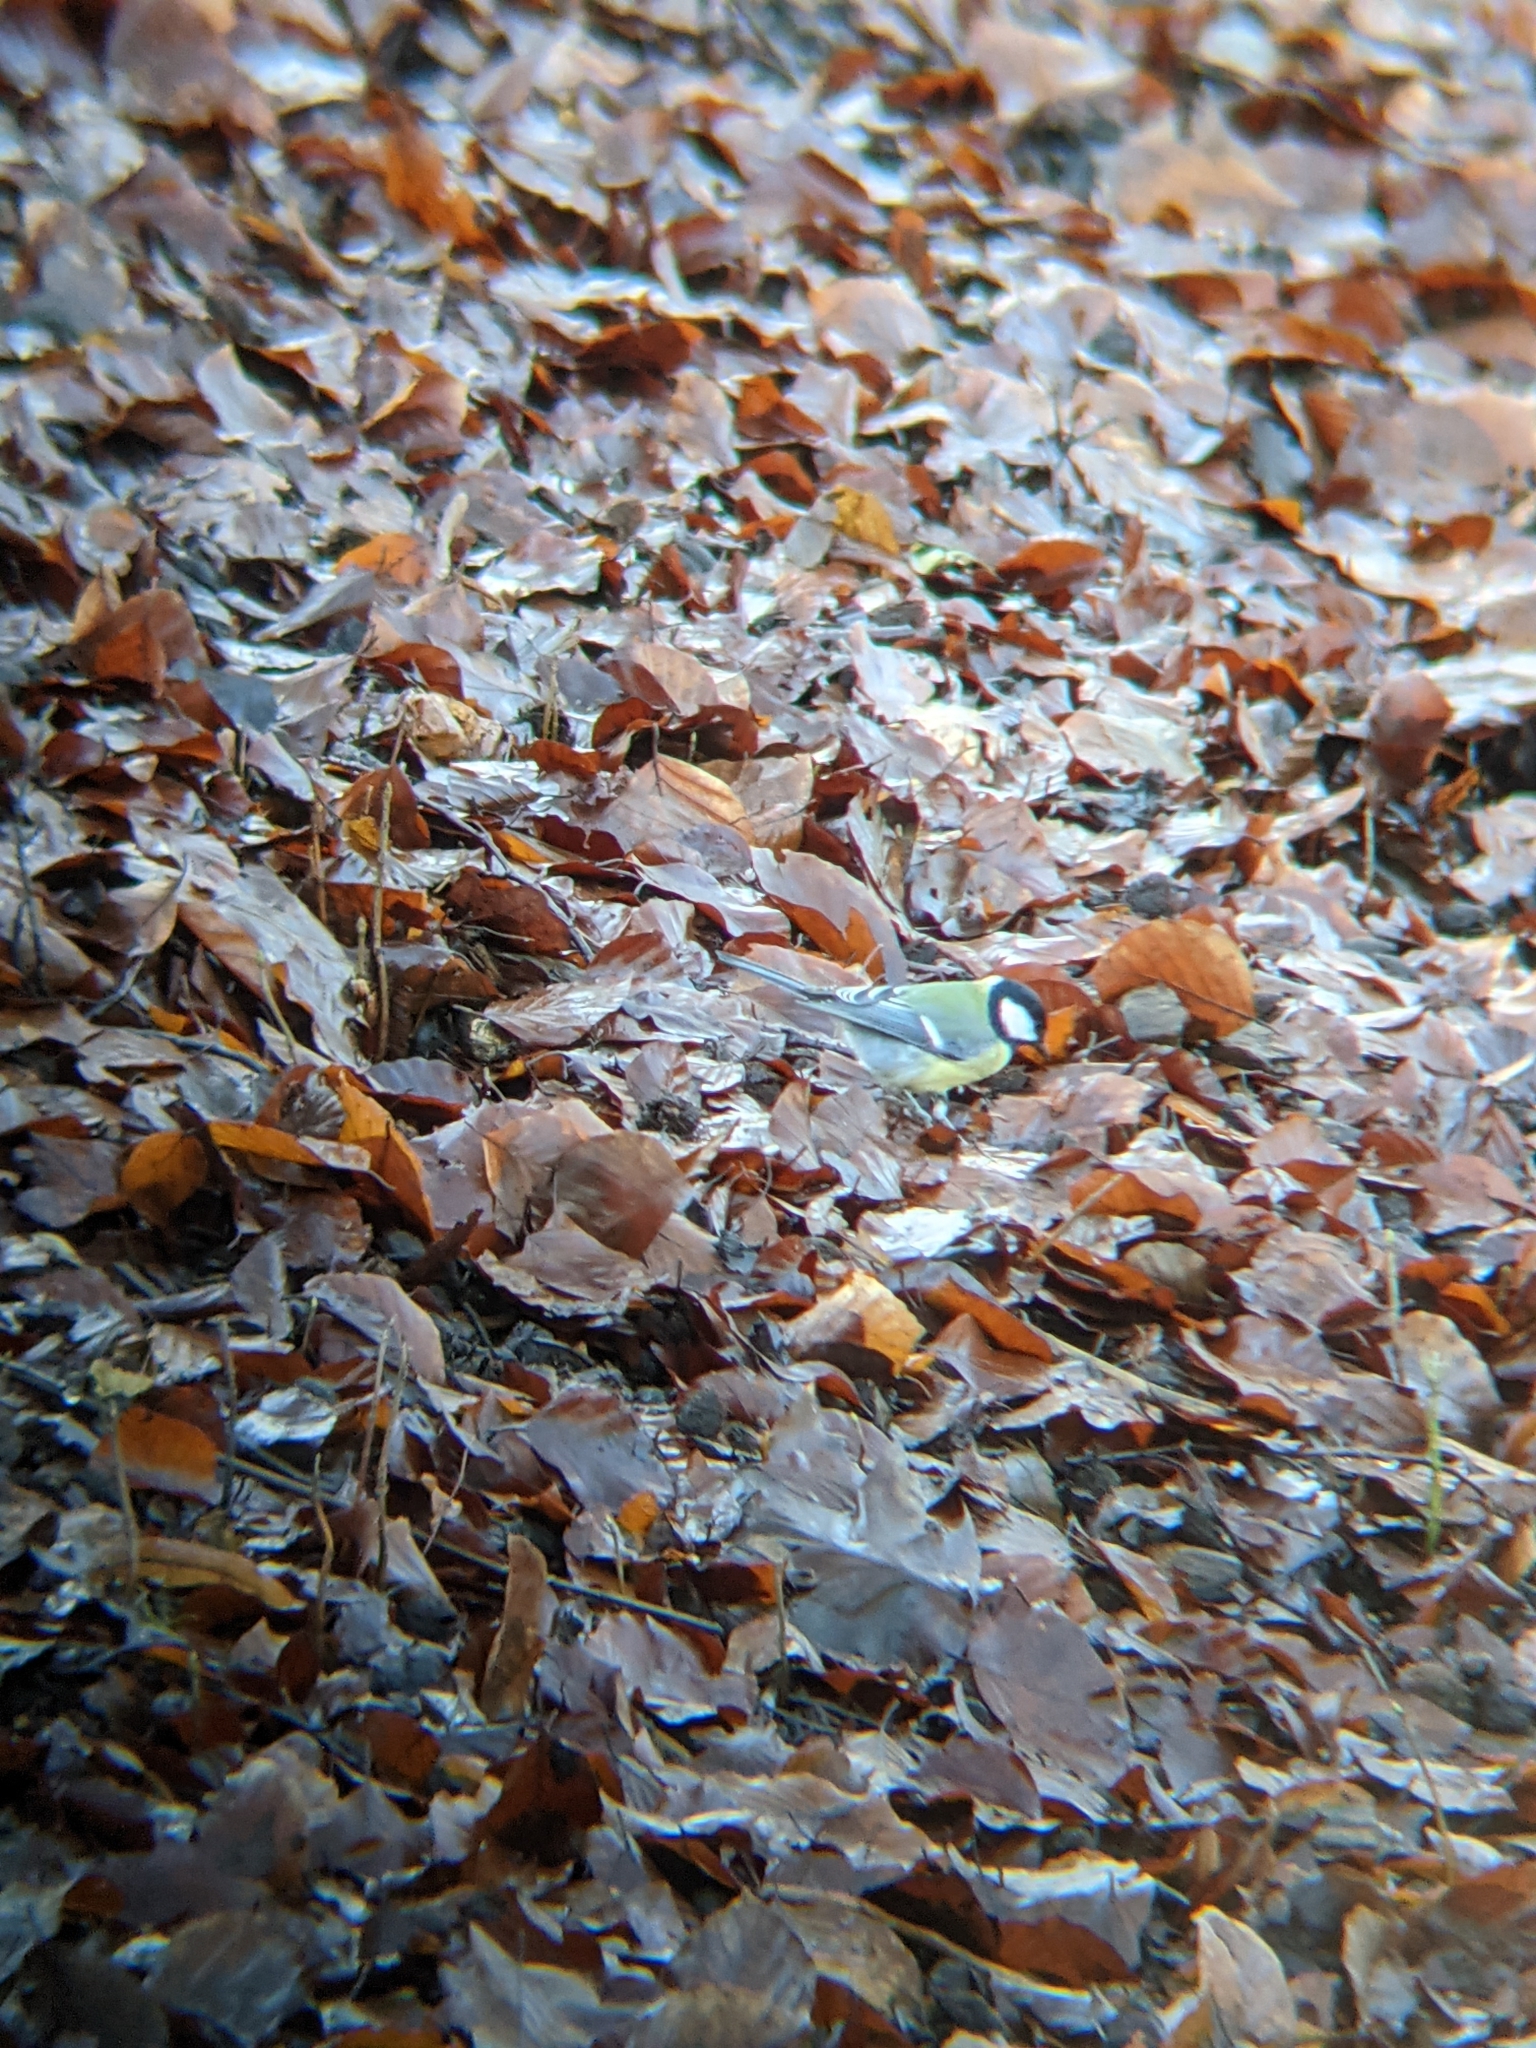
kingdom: Animalia
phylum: Chordata
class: Aves
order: Passeriformes
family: Paridae
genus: Parus
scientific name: Parus major
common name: Great tit
